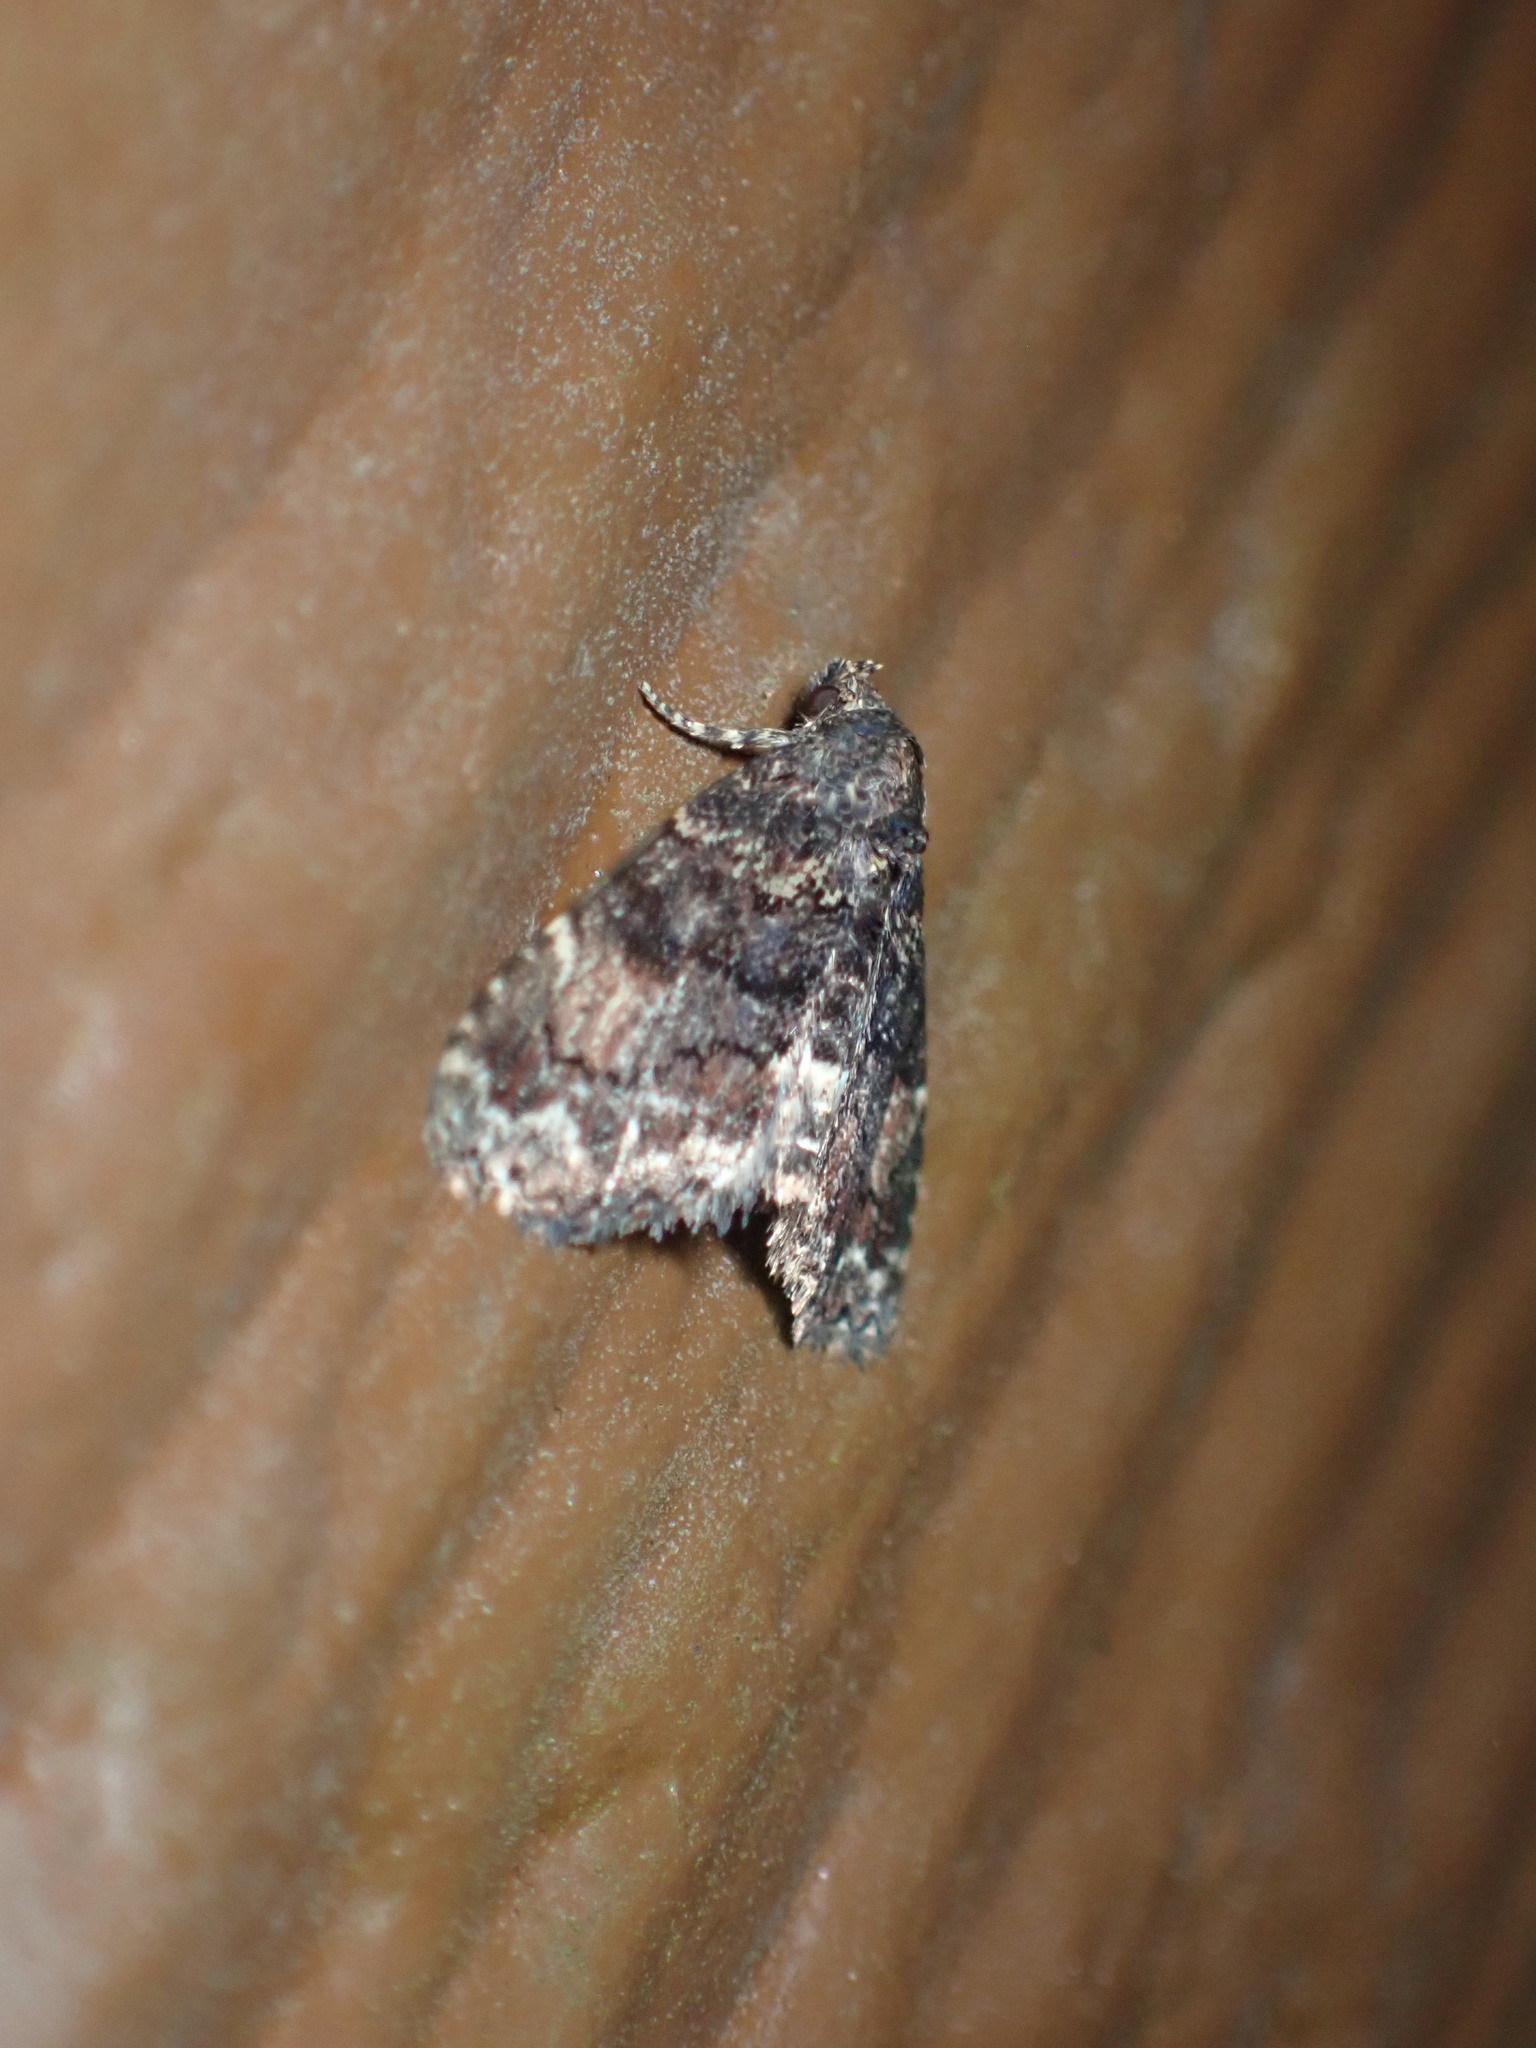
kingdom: Animalia
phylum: Arthropoda
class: Insecta
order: Lepidoptera
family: Erebidae
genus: Metalectra
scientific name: Metalectra richardsi
